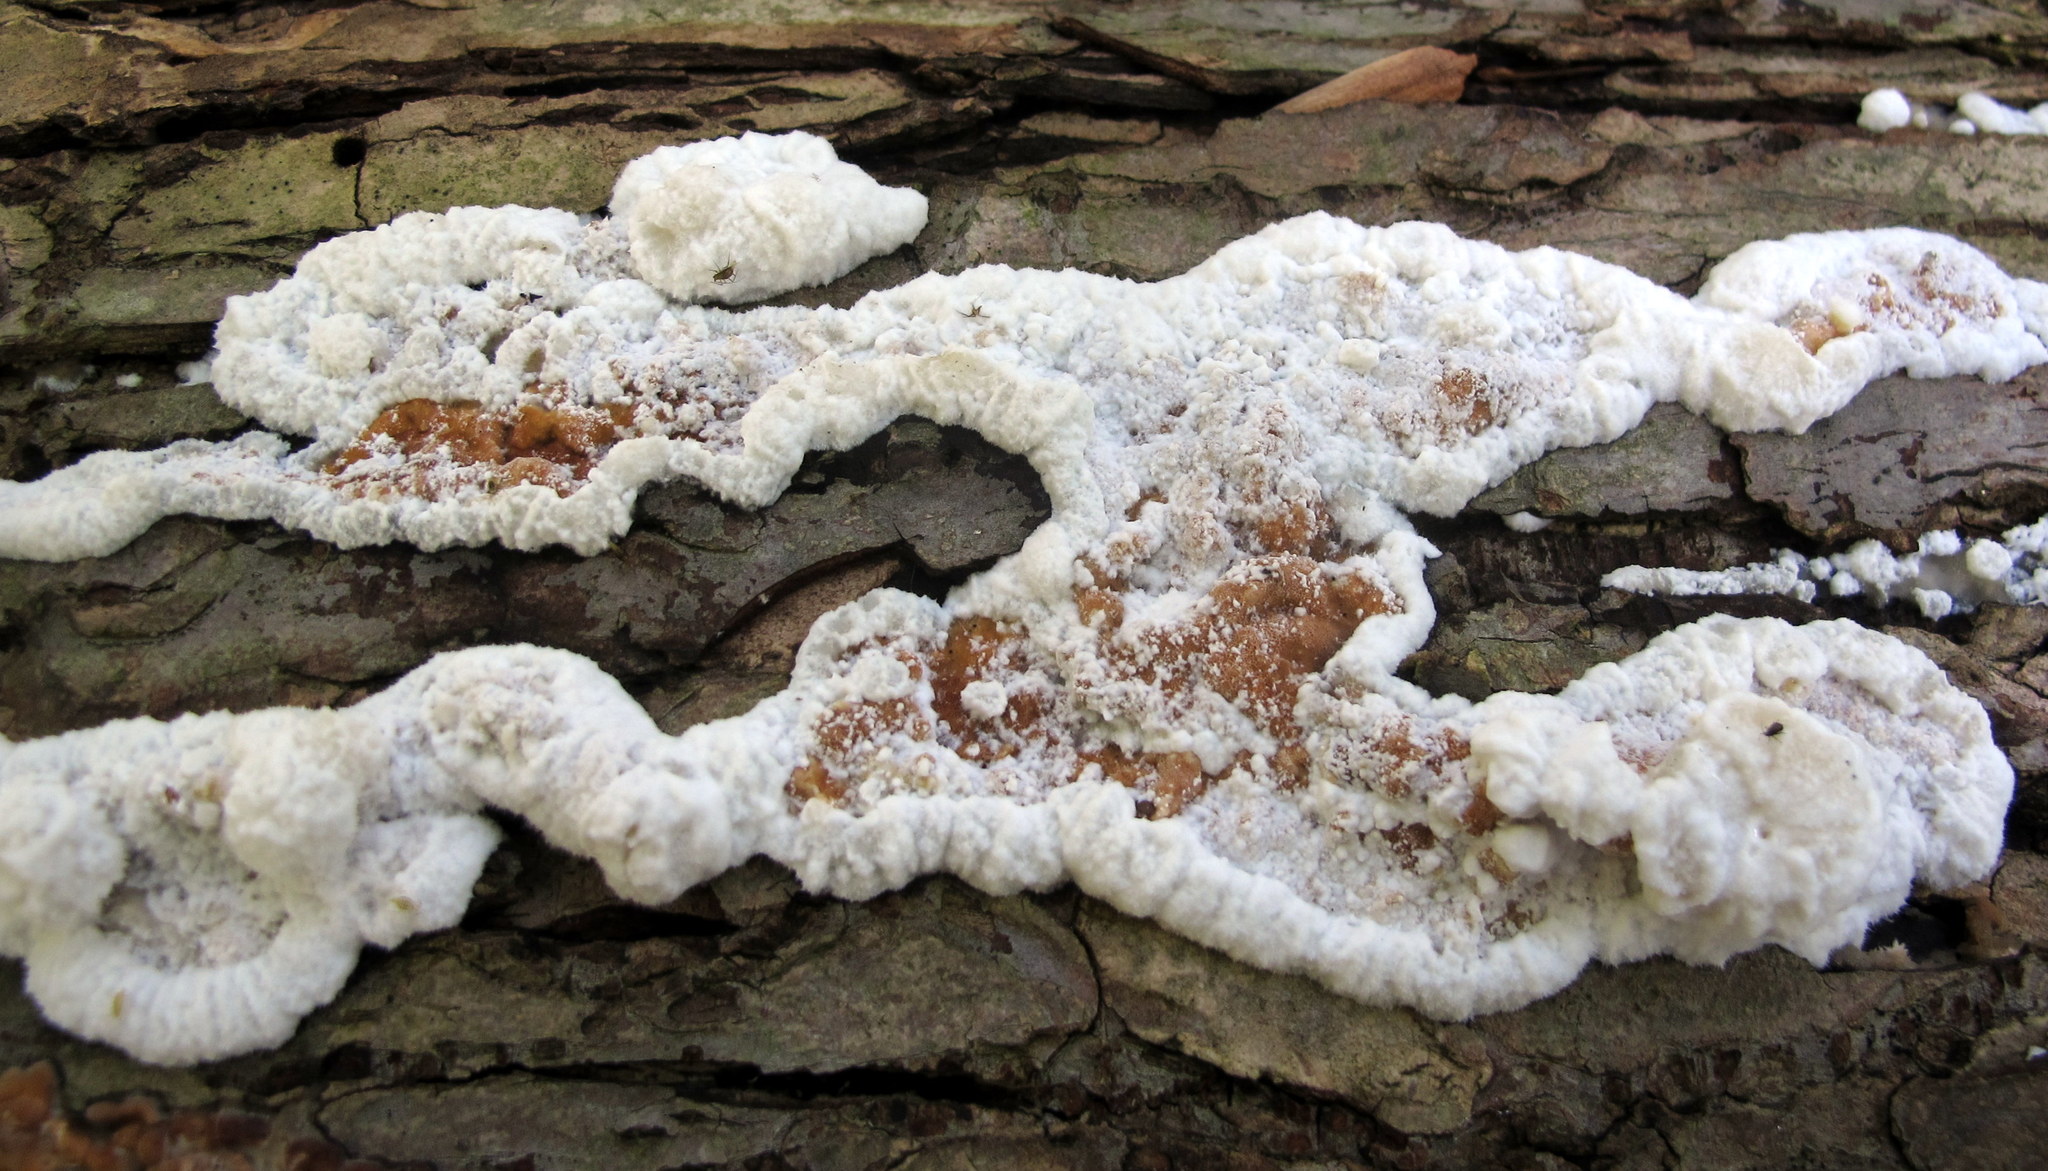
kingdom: Fungi
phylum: Basidiomycota
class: Agaricomycetes
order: Polyporales
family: Irpicaceae
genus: Vitreoporus
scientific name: Vitreoporus dichrous
